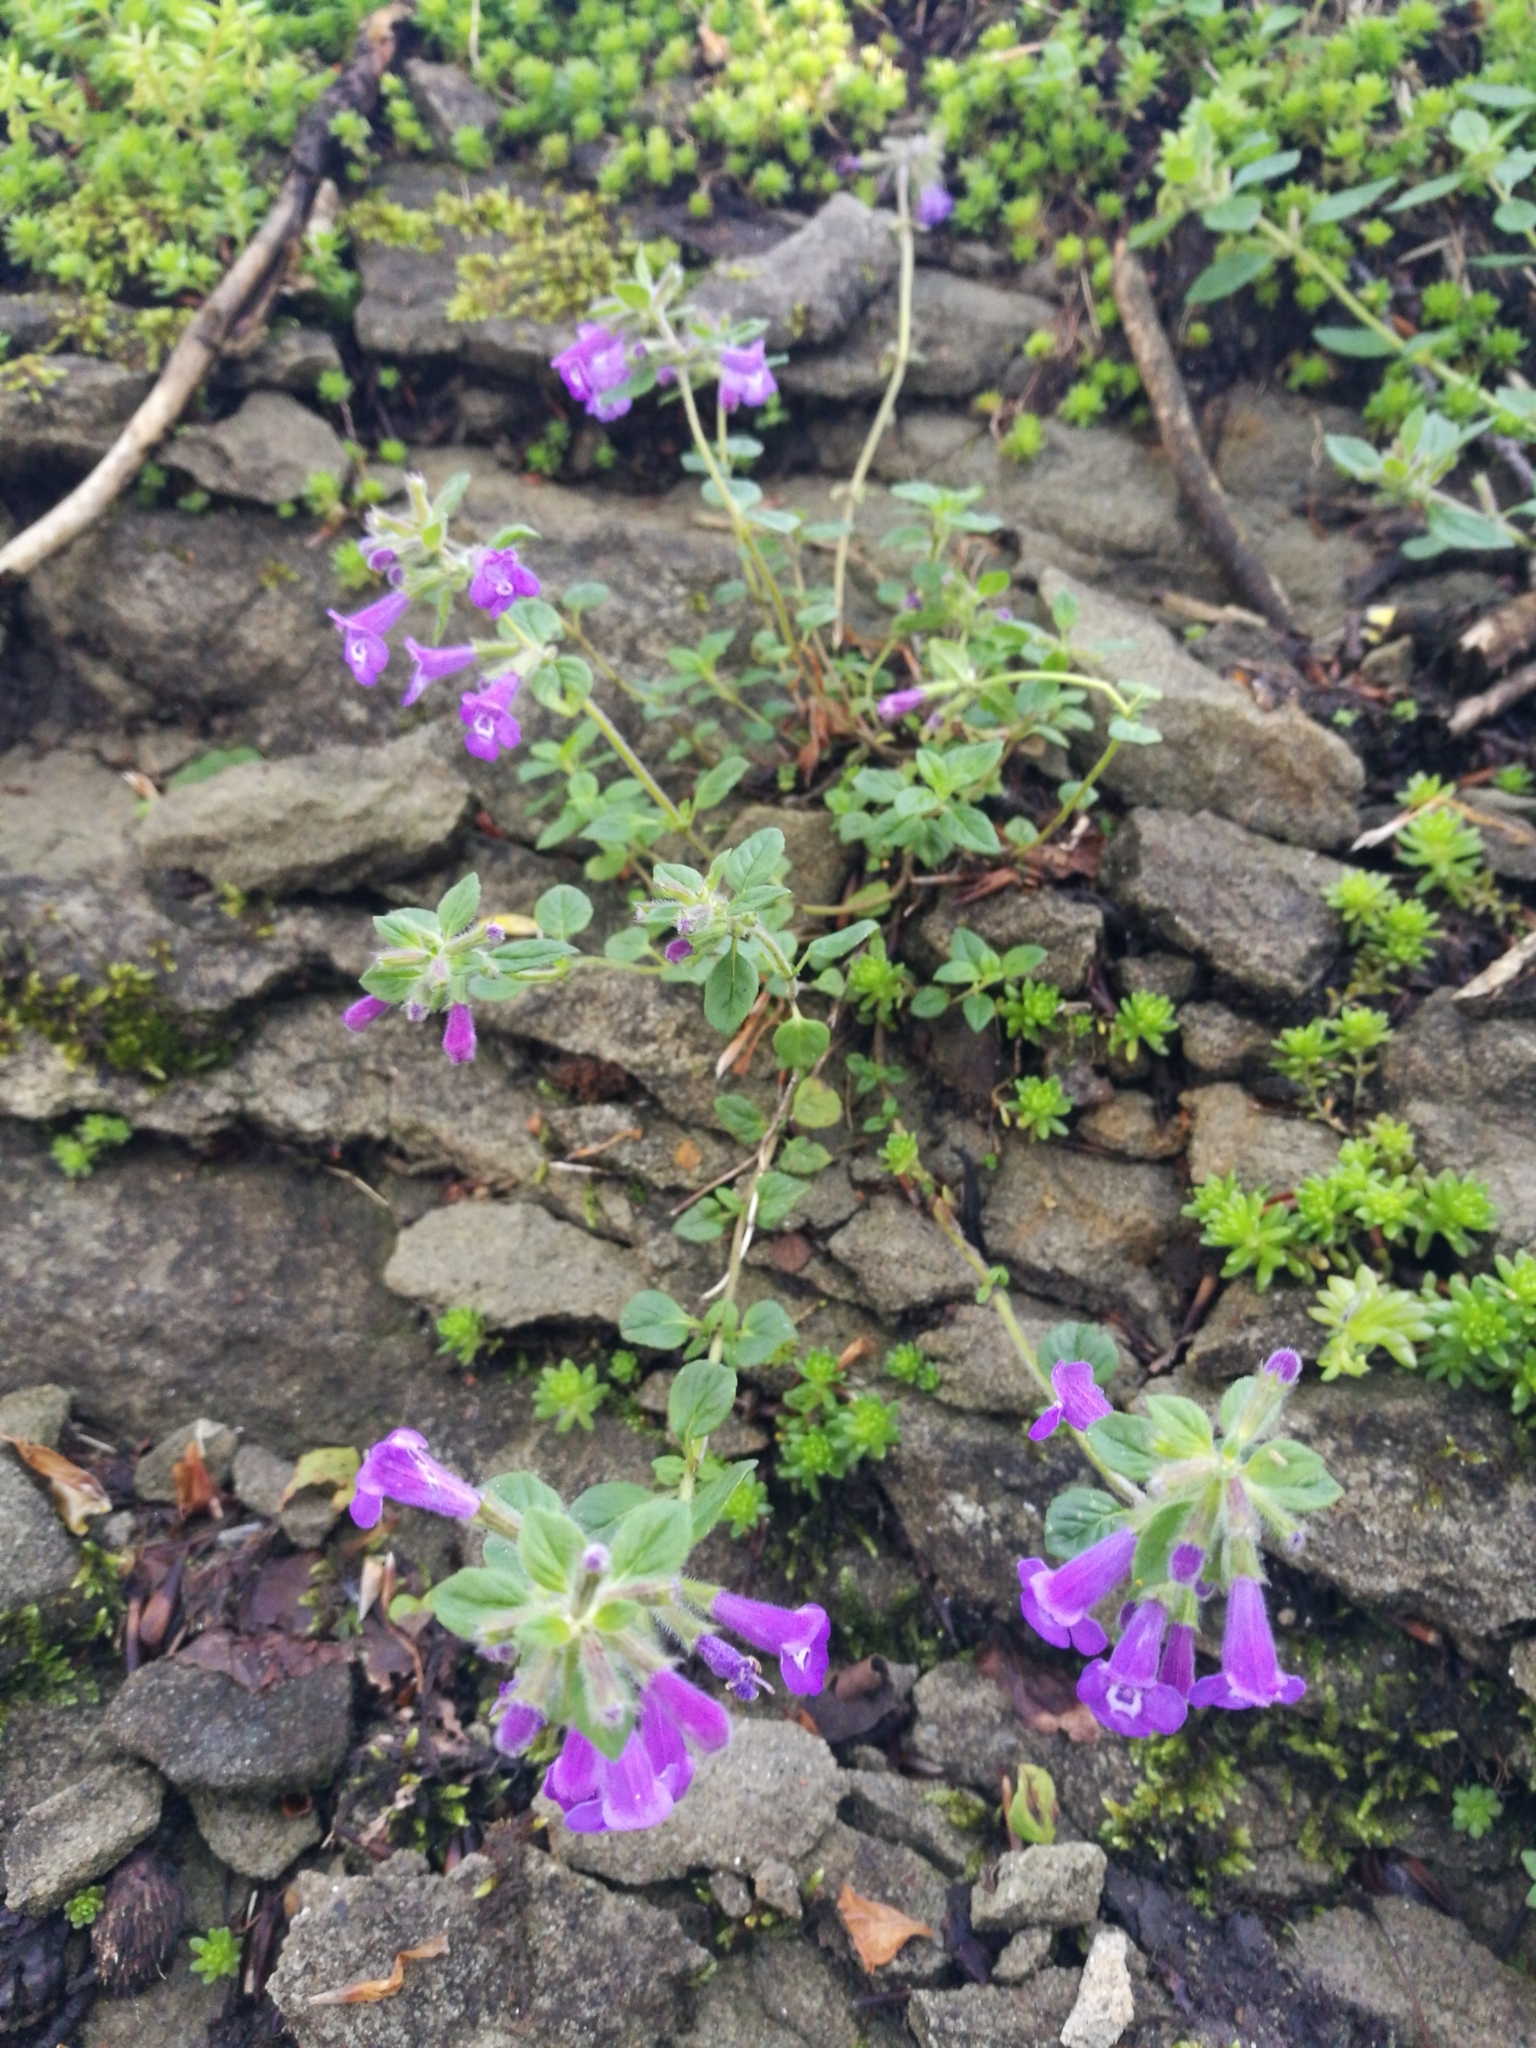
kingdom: Plantae
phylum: Tracheophyta
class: Magnoliopsida
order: Lamiales
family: Lamiaceae
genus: Clinopodium
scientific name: Clinopodium alpinum
